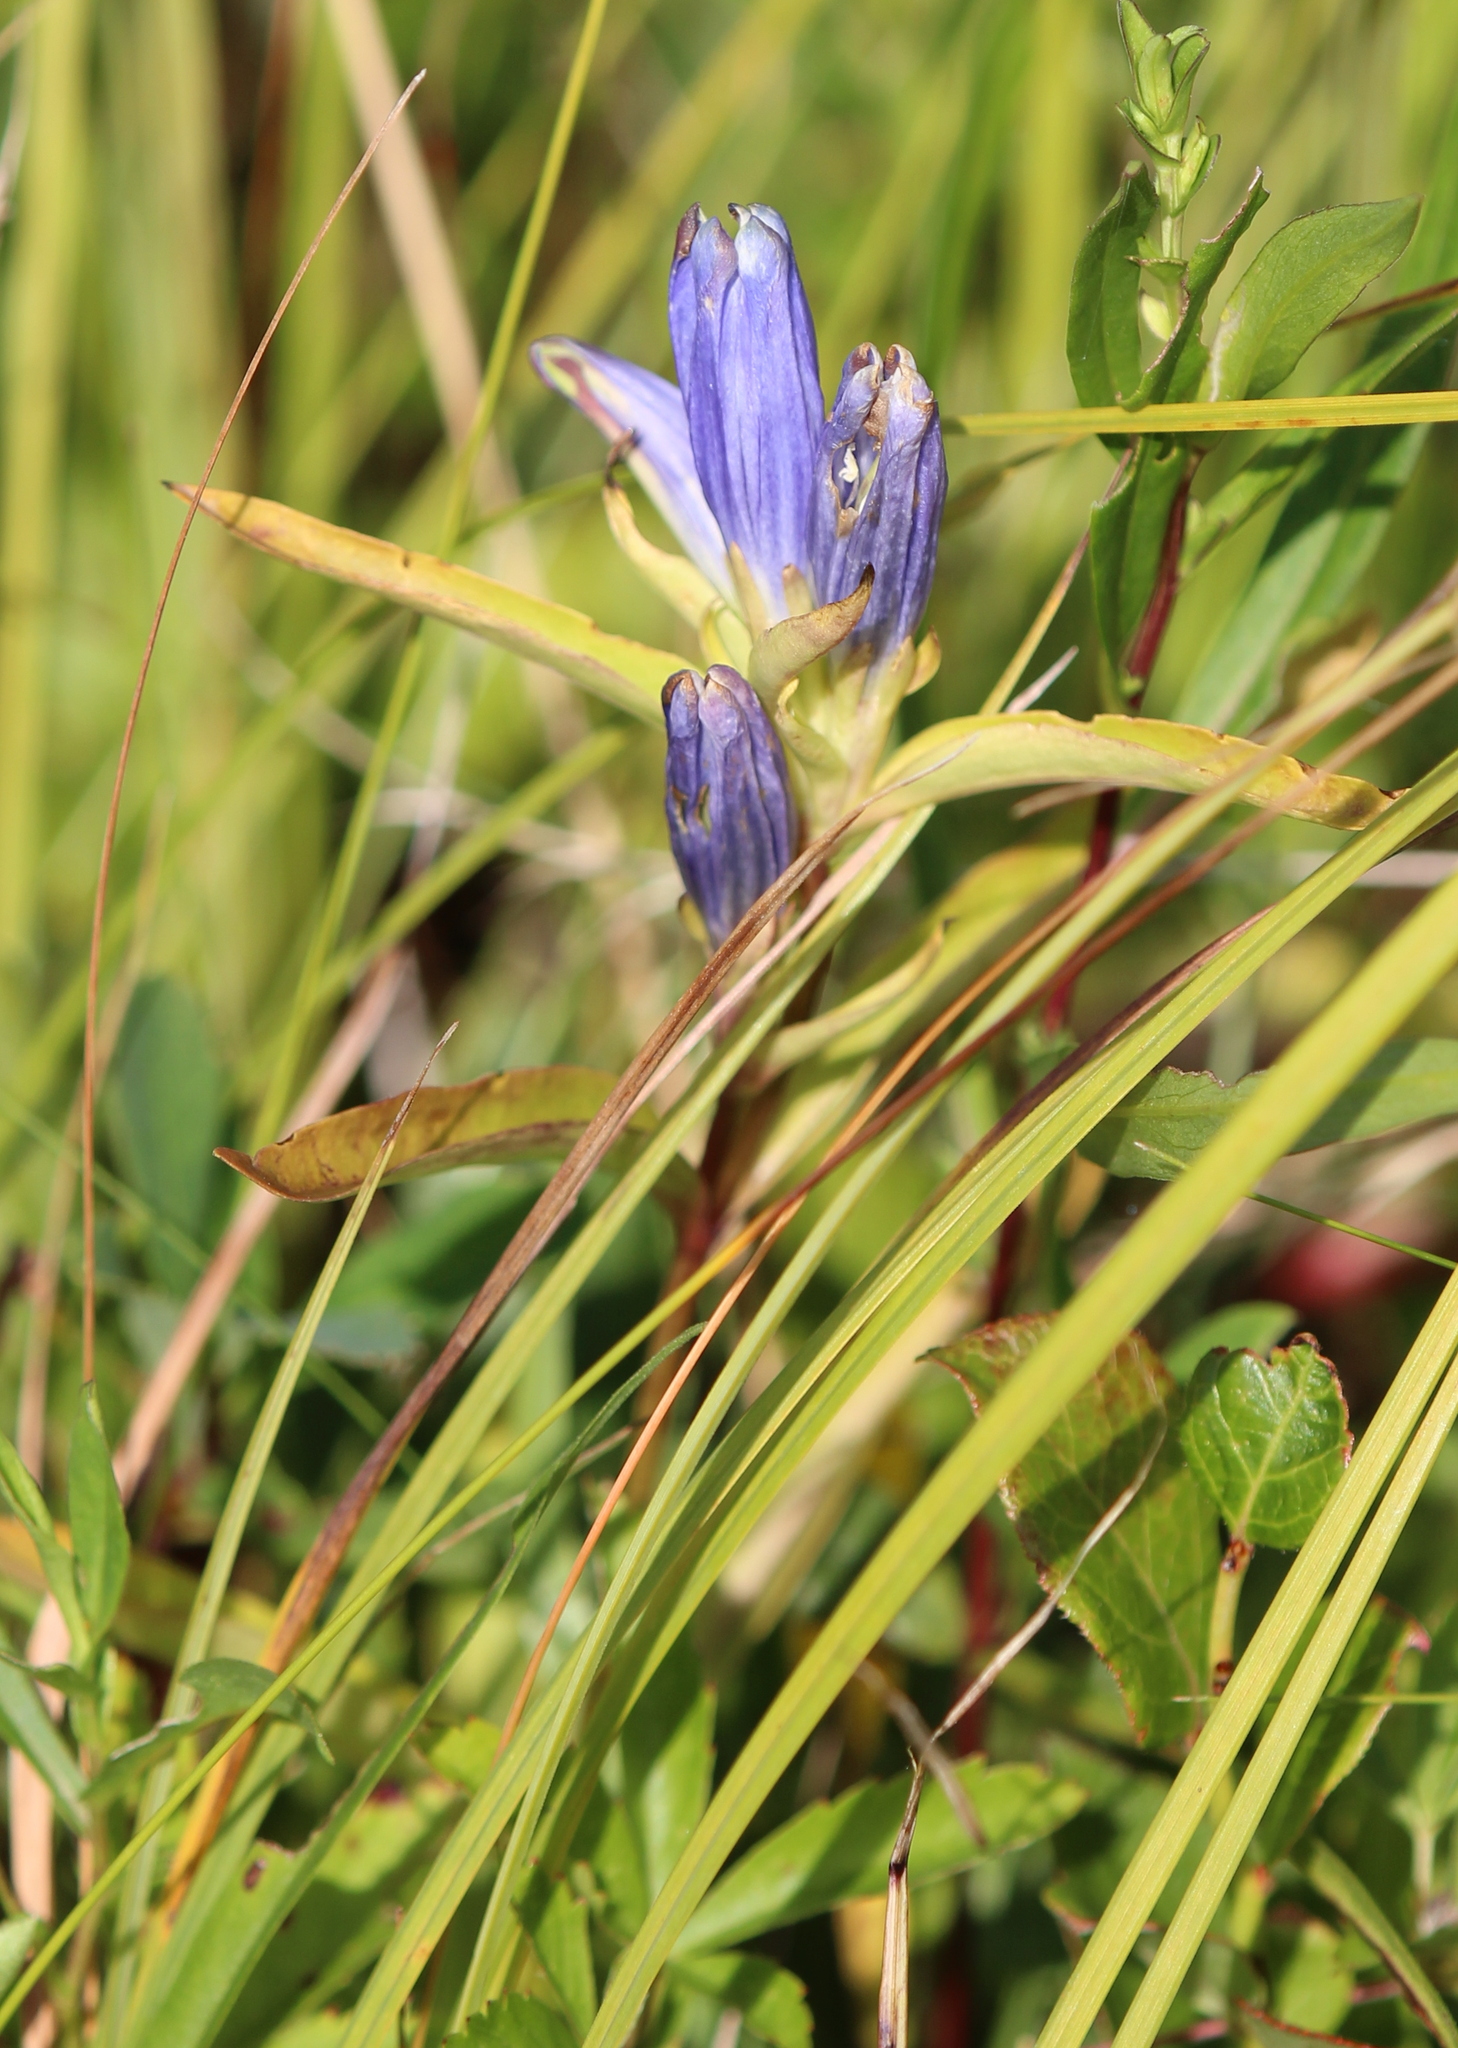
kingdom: Plantae
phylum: Tracheophyta
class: Magnoliopsida
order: Gentianales
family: Gentianaceae
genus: Gentiana
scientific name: Gentiana linearis
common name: Bastard gentian
